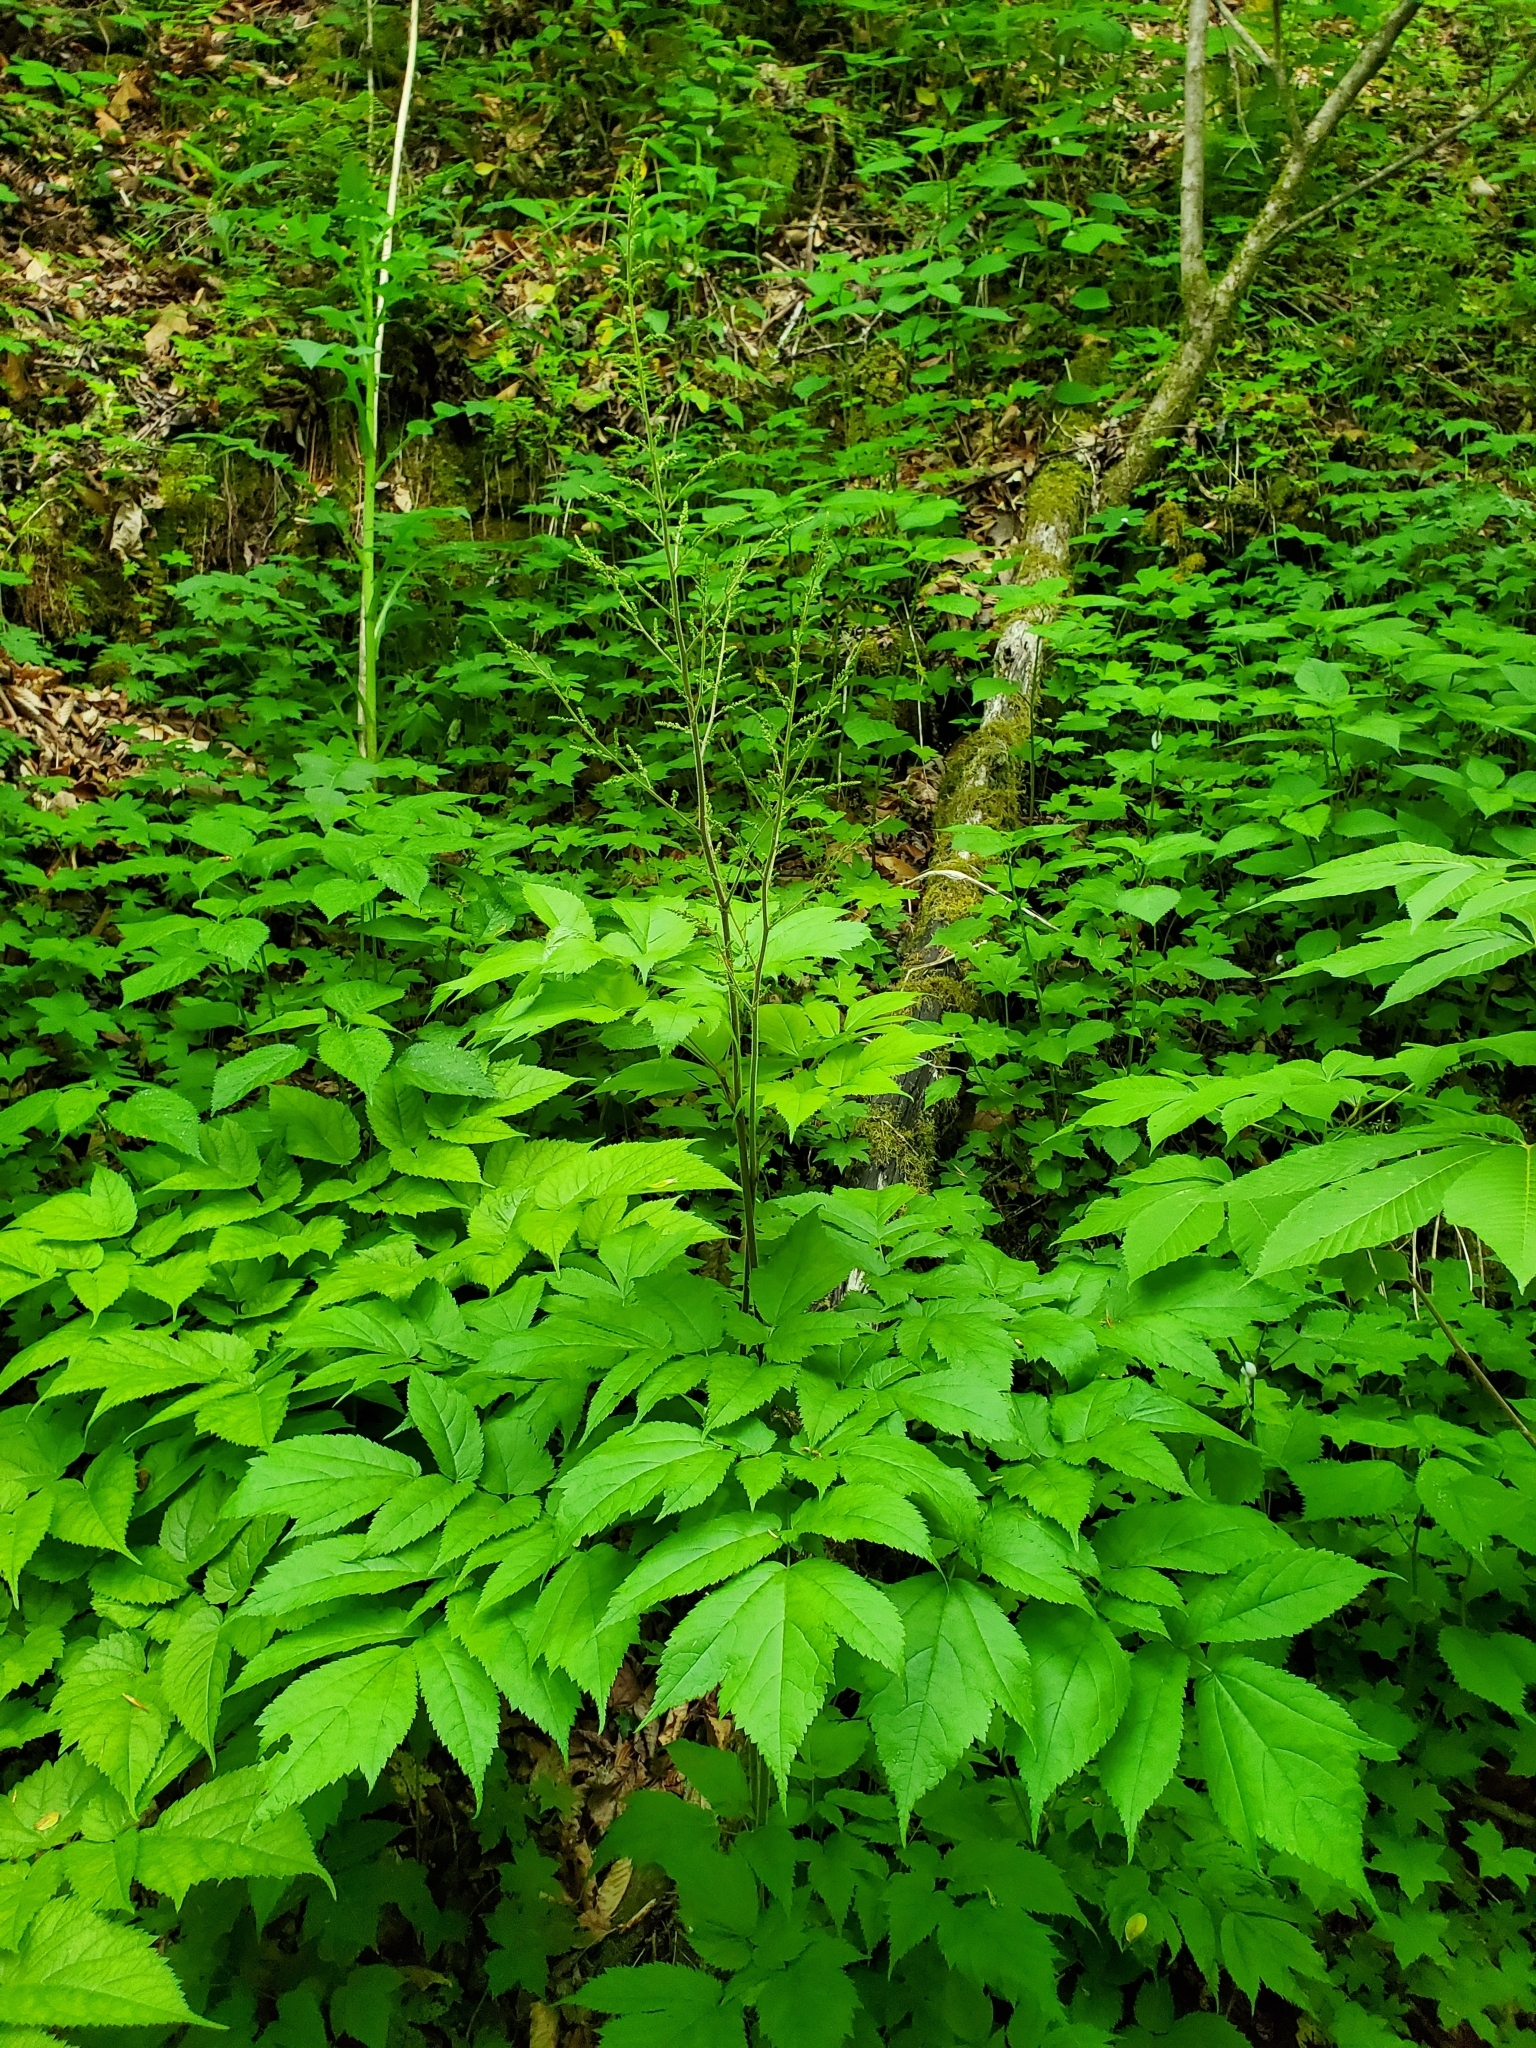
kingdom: Plantae
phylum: Tracheophyta
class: Magnoliopsida
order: Saxifragales
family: Saxifragaceae
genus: Astilbe
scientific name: Astilbe biternata
